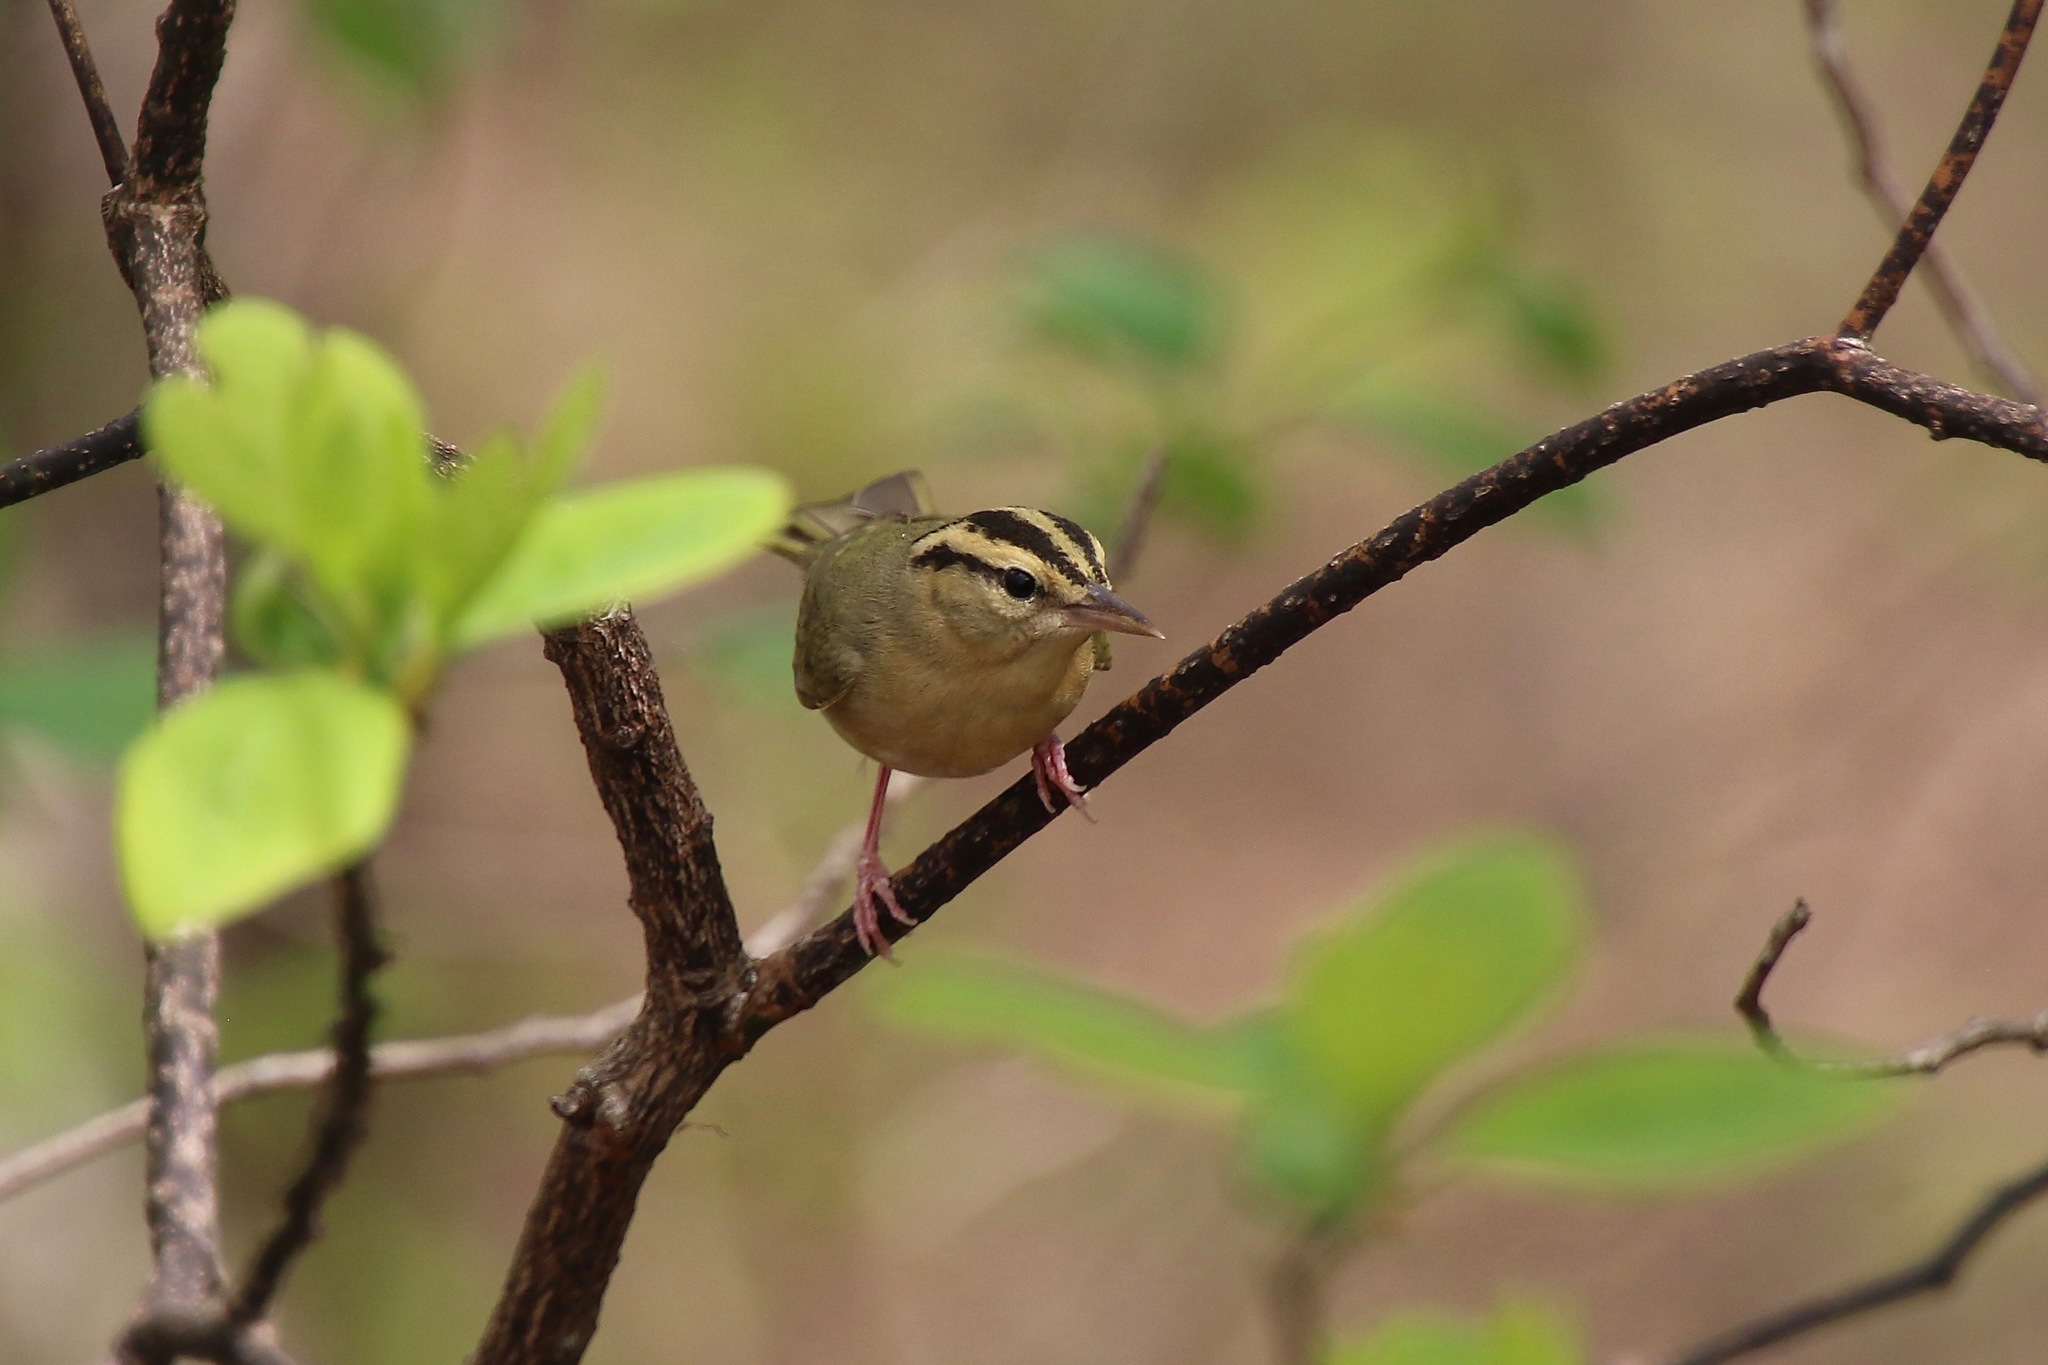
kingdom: Animalia
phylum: Chordata
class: Aves
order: Passeriformes
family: Parulidae
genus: Helmitheros
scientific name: Helmitheros vermivorum
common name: Worm-eating warbler
